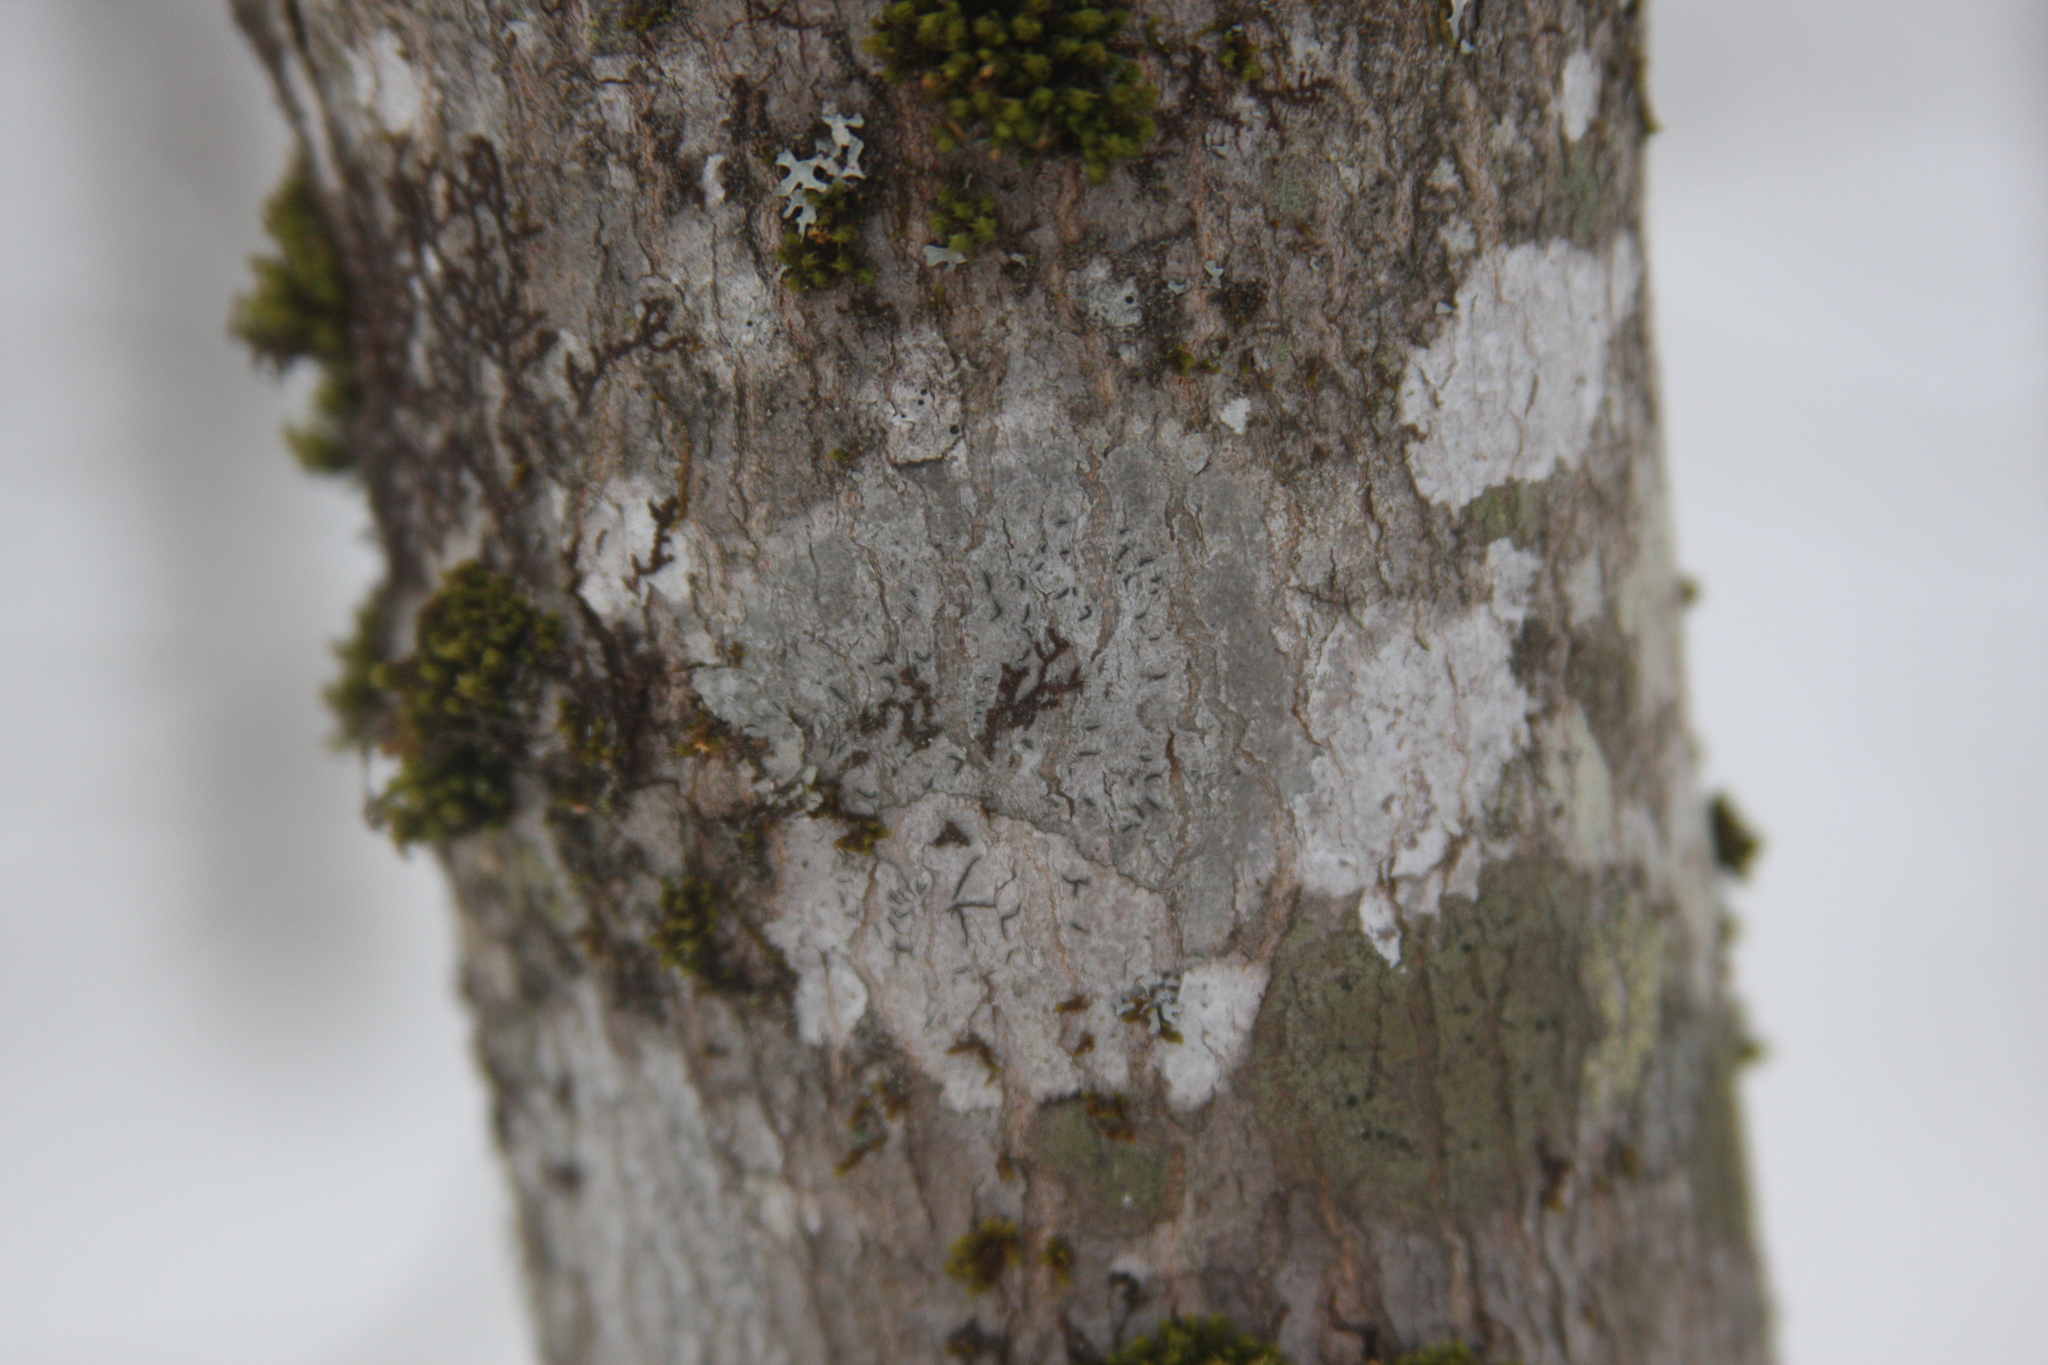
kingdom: Fungi
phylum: Ascomycota
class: Lecanoromycetes
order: Ostropales
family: Graphidaceae
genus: Graphis
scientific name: Graphis scripta
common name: Script lichen
